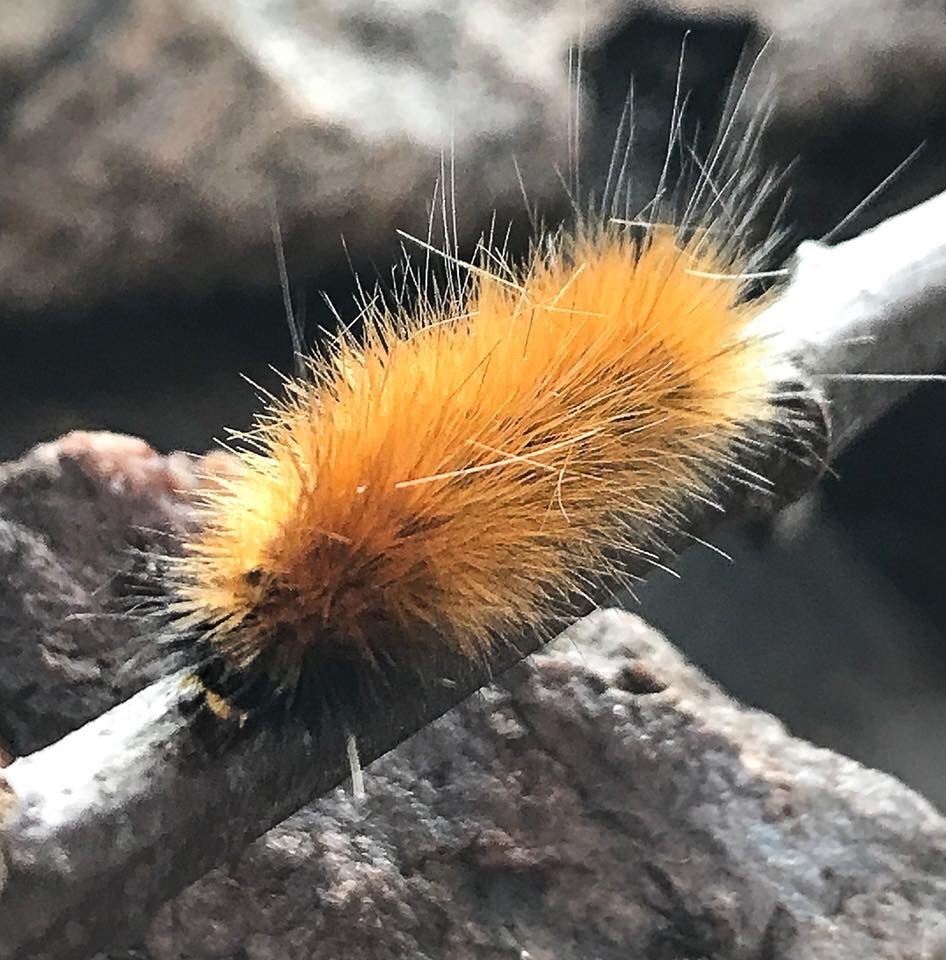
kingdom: Animalia
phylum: Arthropoda
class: Insecta
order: Lepidoptera
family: Erebidae
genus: Spilosoma
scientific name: Spilosoma virginica
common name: Virginia tiger moth
